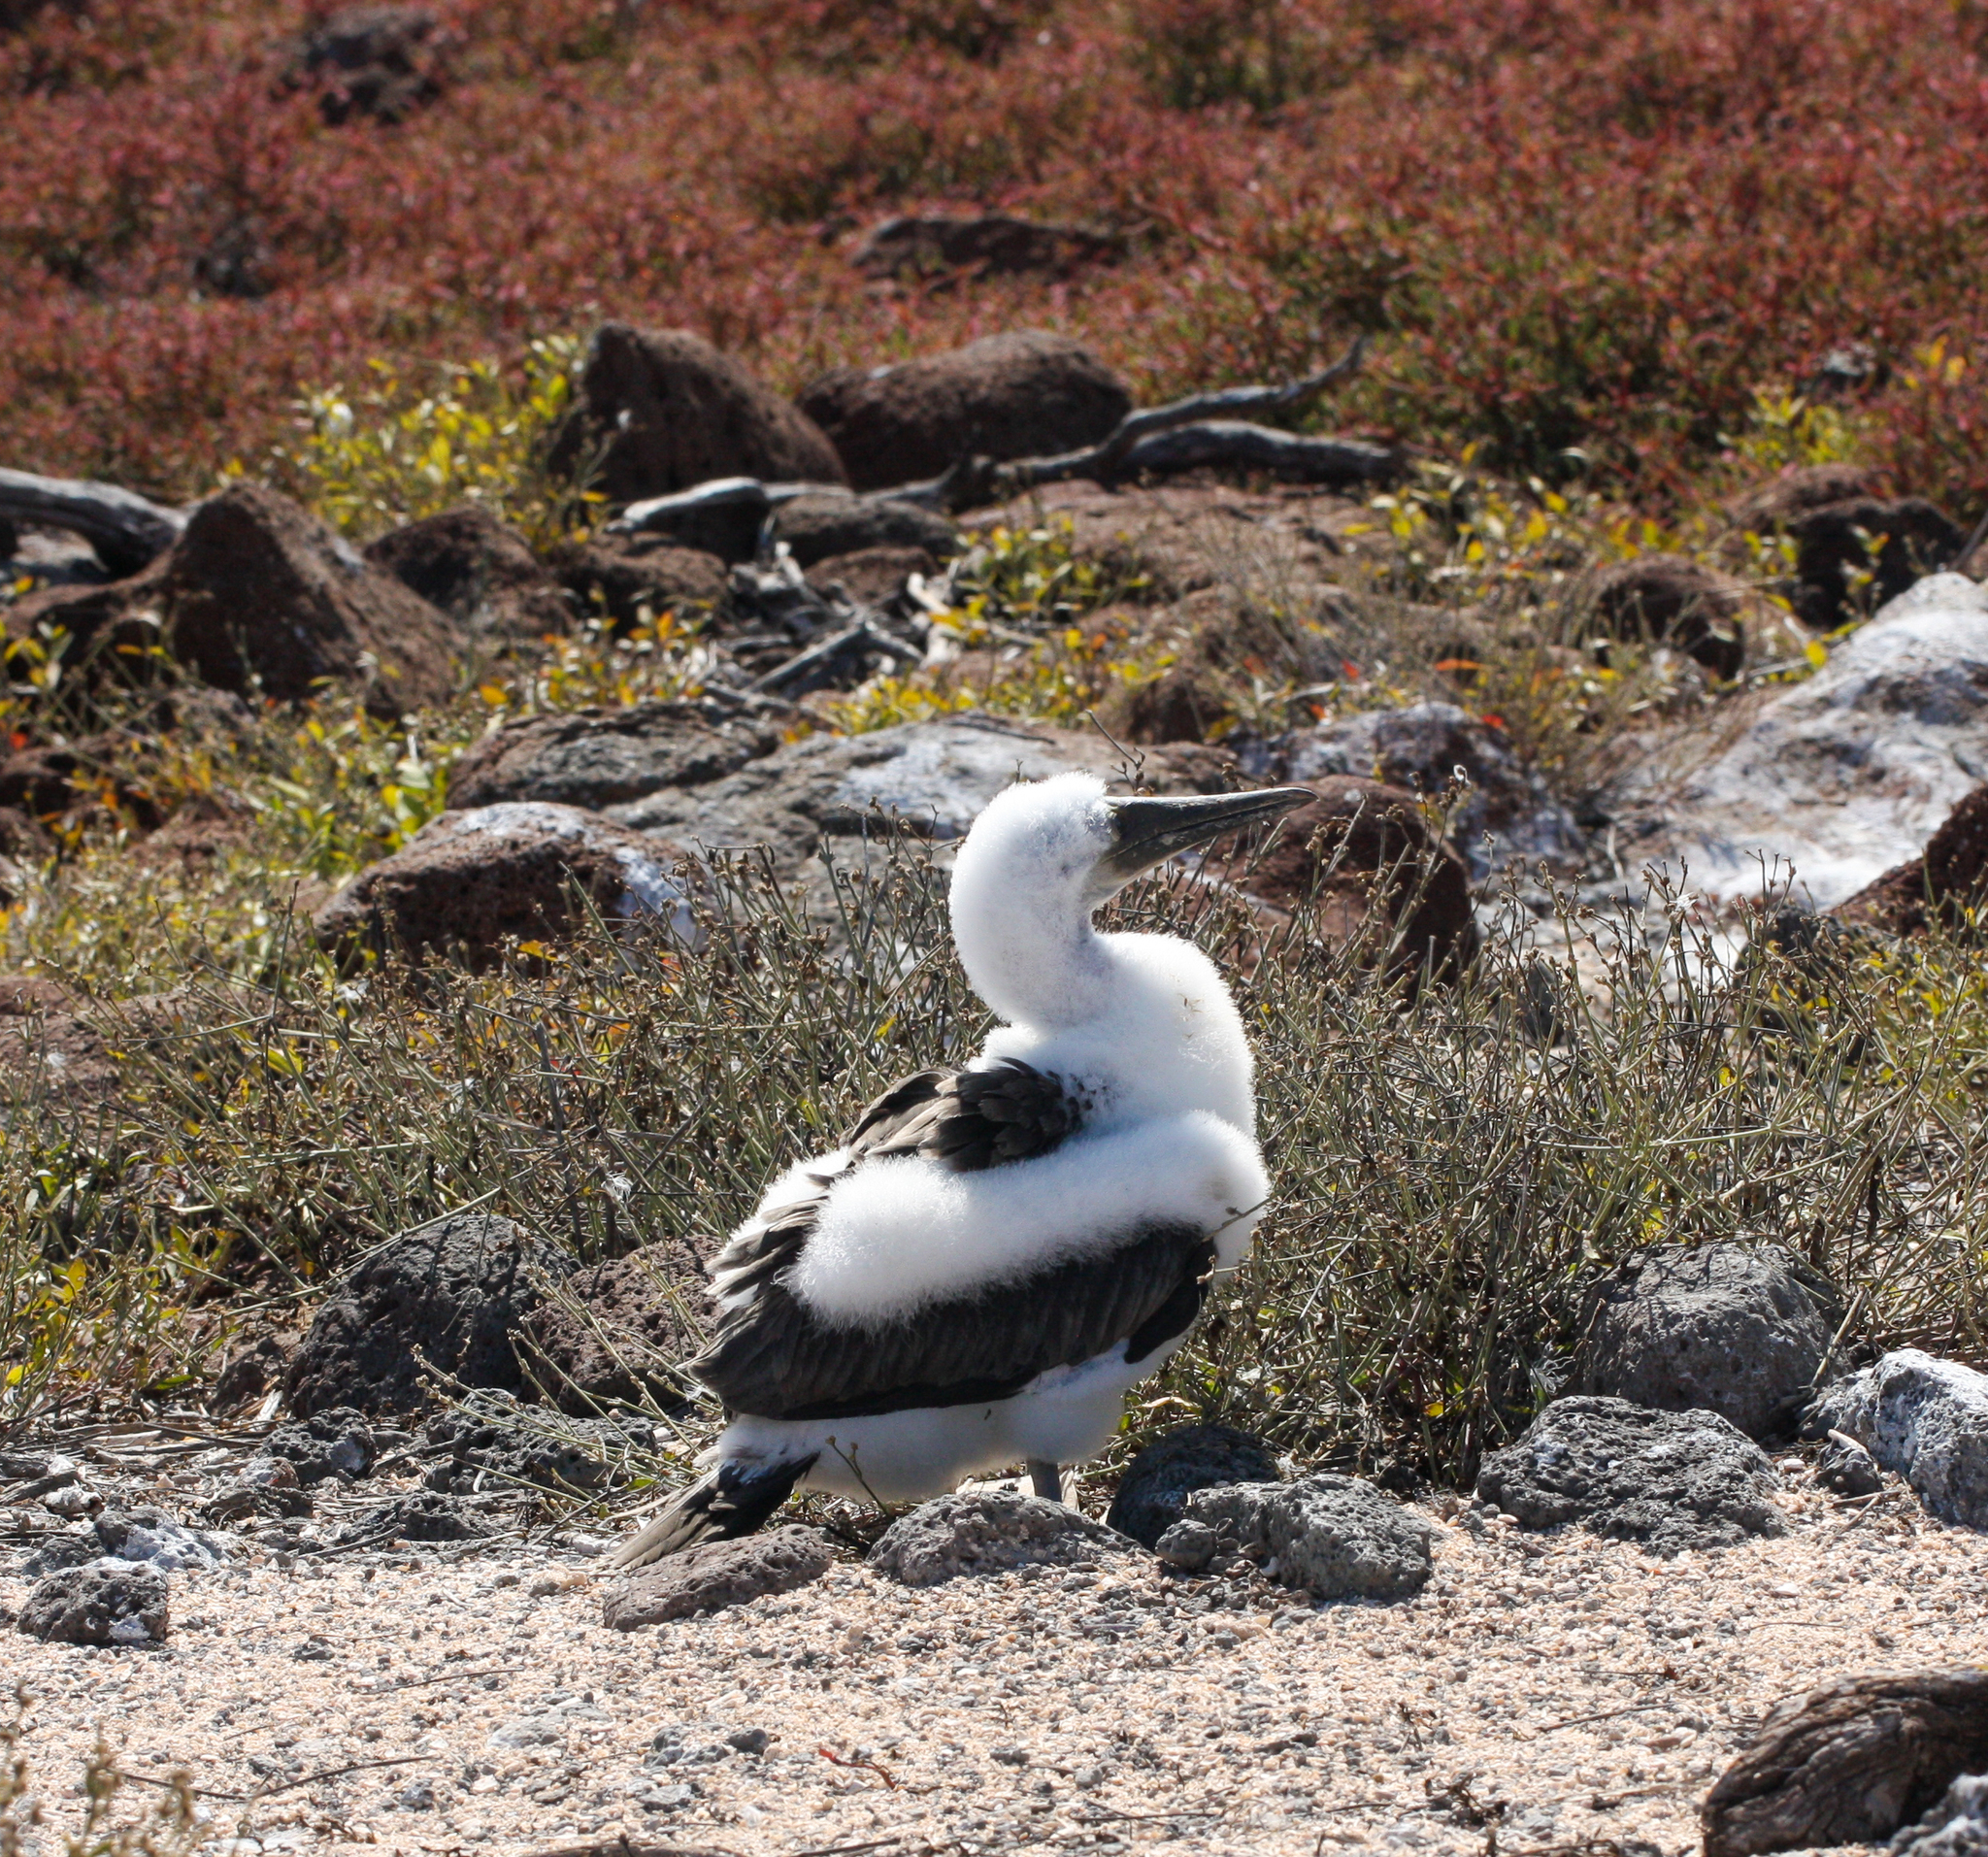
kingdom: Animalia
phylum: Chordata
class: Aves
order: Suliformes
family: Sulidae
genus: Sula
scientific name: Sula nebouxii
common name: Blue-footed booby
